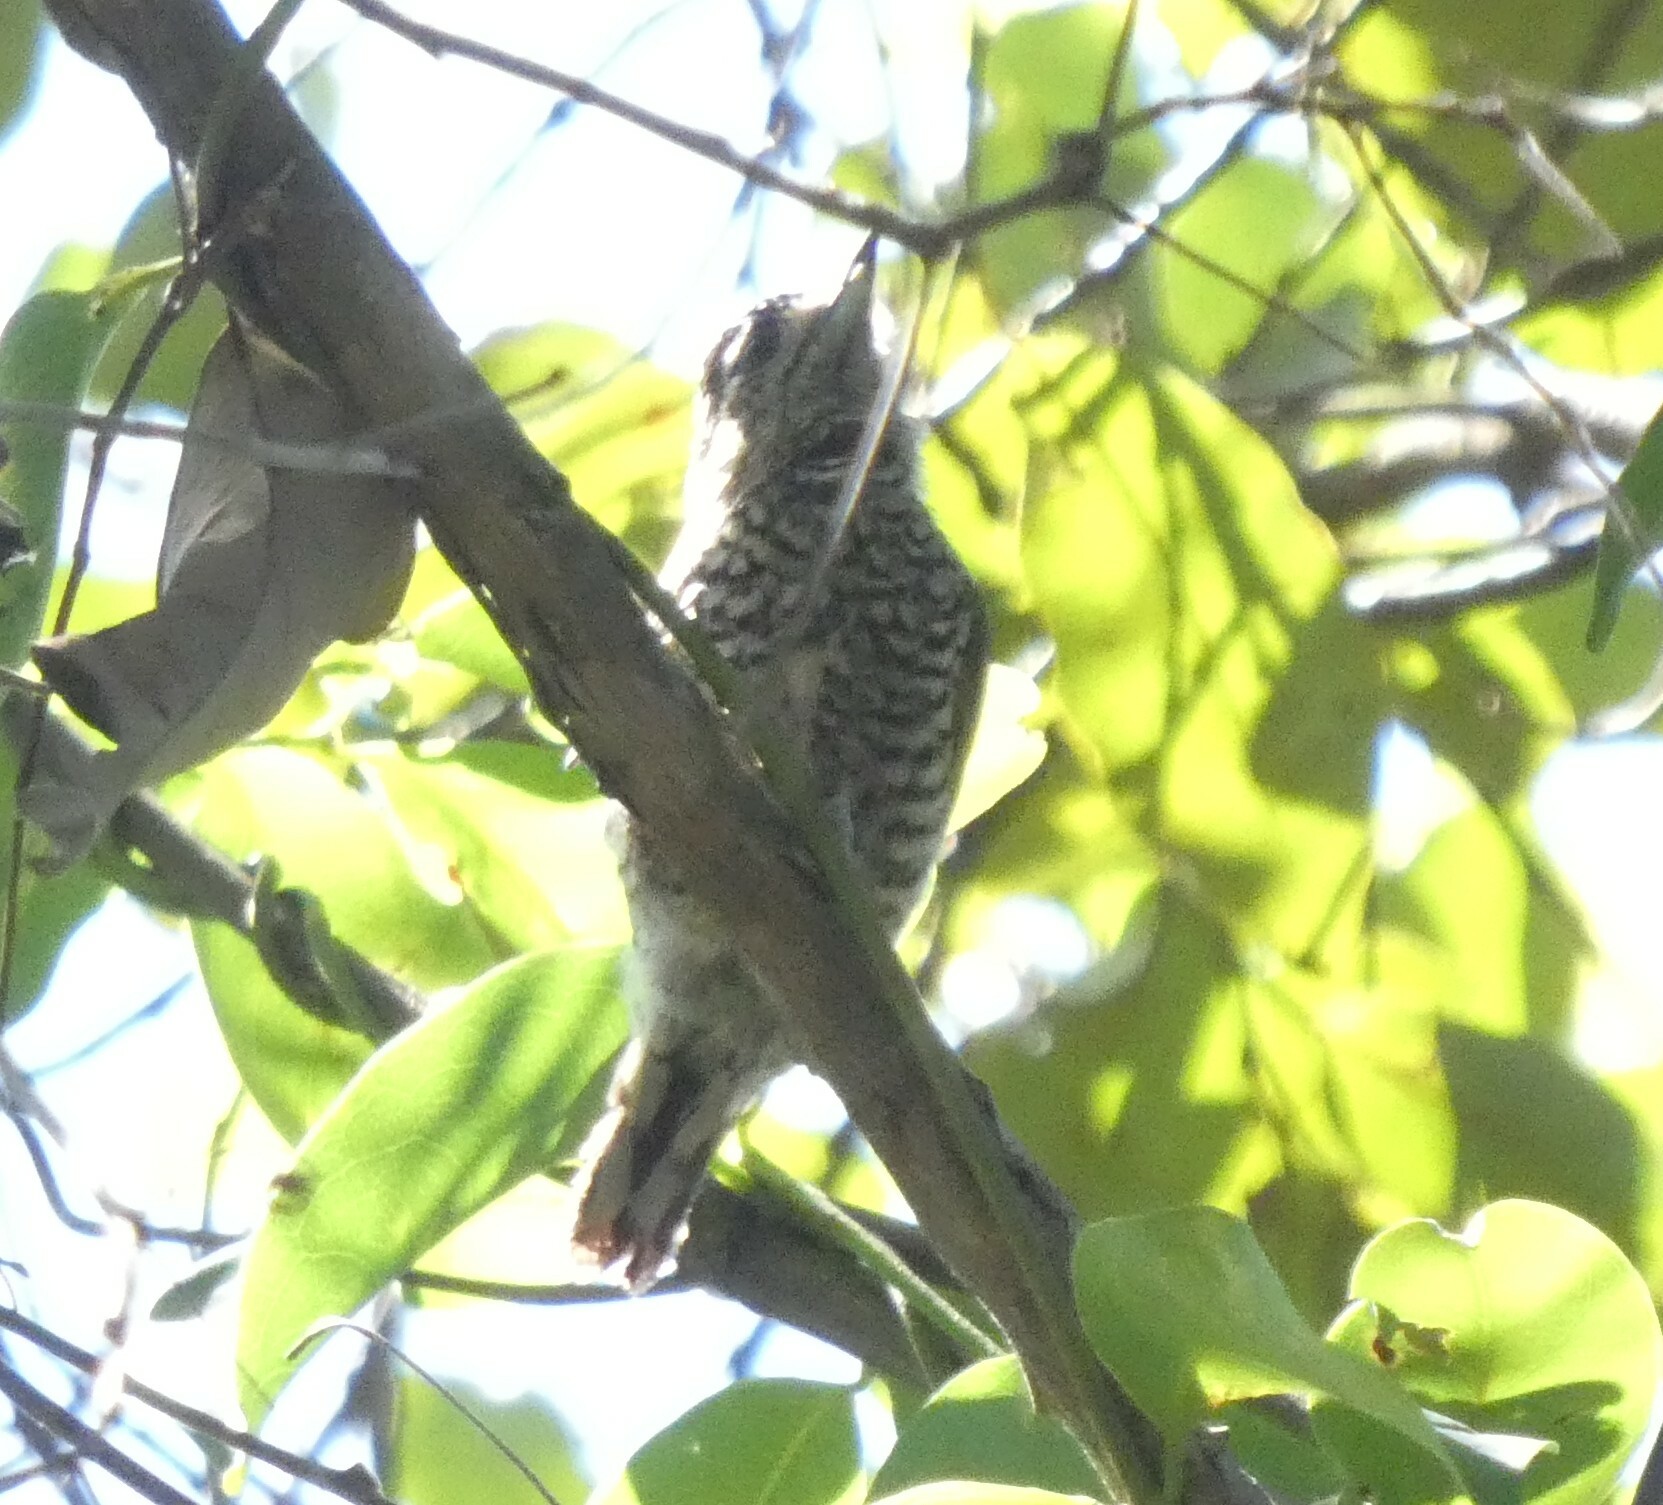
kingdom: Animalia
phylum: Chordata
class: Aves
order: Piciformes
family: Picidae
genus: Picumnus
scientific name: Picumnus cirratus
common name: White-barred piculet
